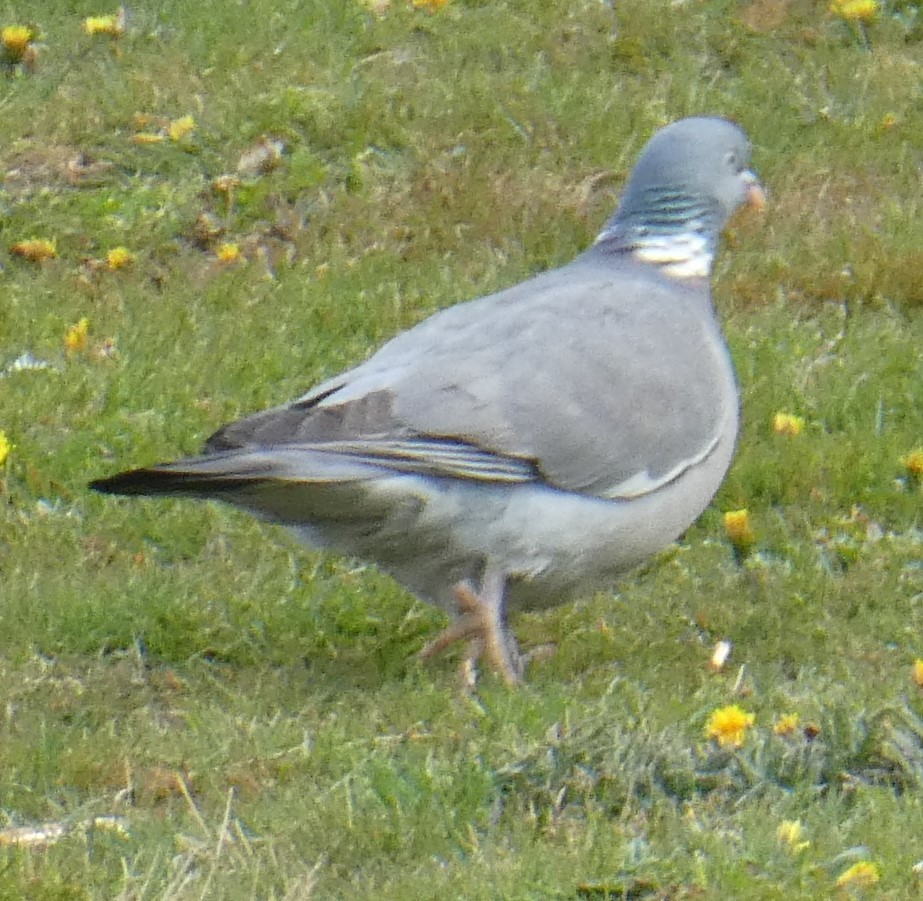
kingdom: Animalia
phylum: Chordata
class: Aves
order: Columbiformes
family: Columbidae
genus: Columba
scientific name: Columba palumbus
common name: Common wood pigeon
